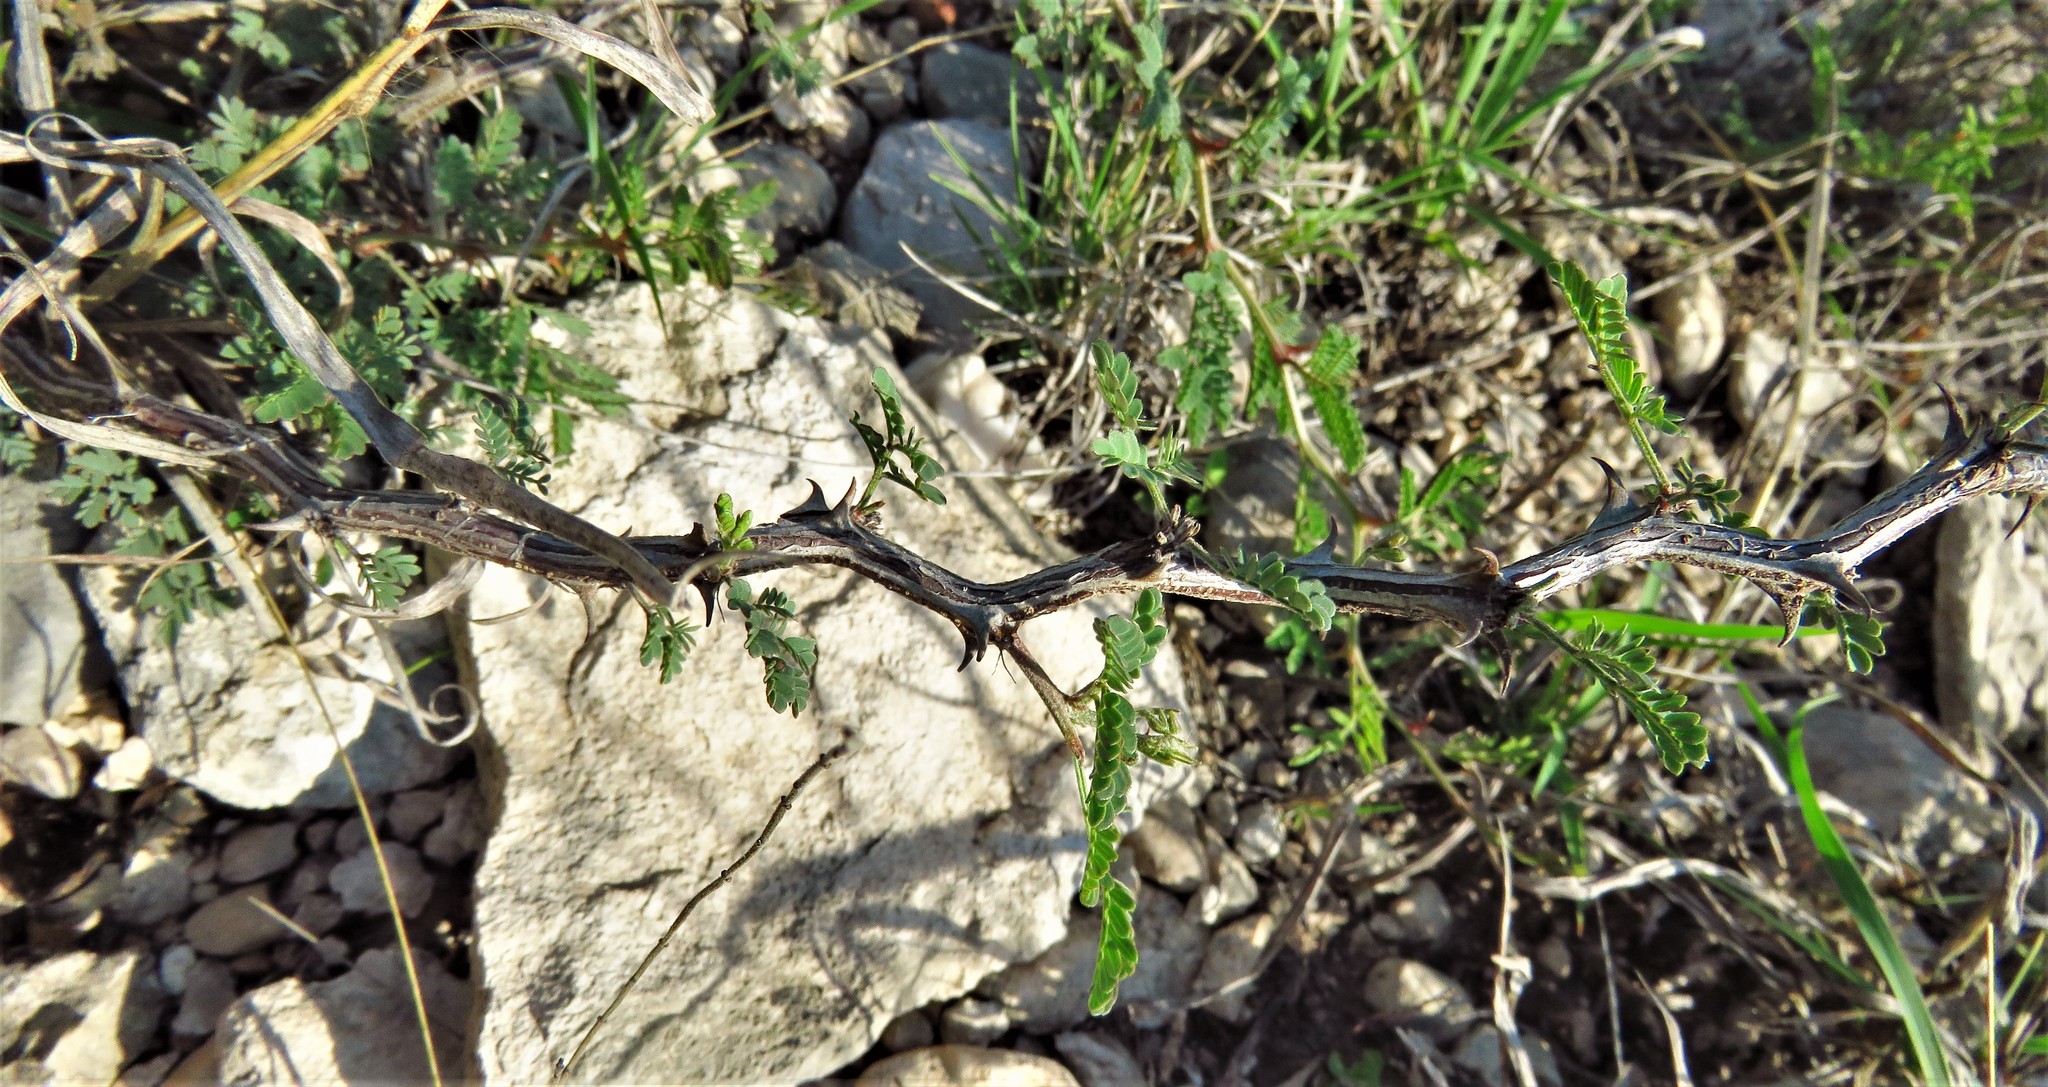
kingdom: Plantae
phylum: Tracheophyta
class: Magnoliopsida
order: Fabales
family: Fabaceae
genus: Mimosa
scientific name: Mimosa texana
